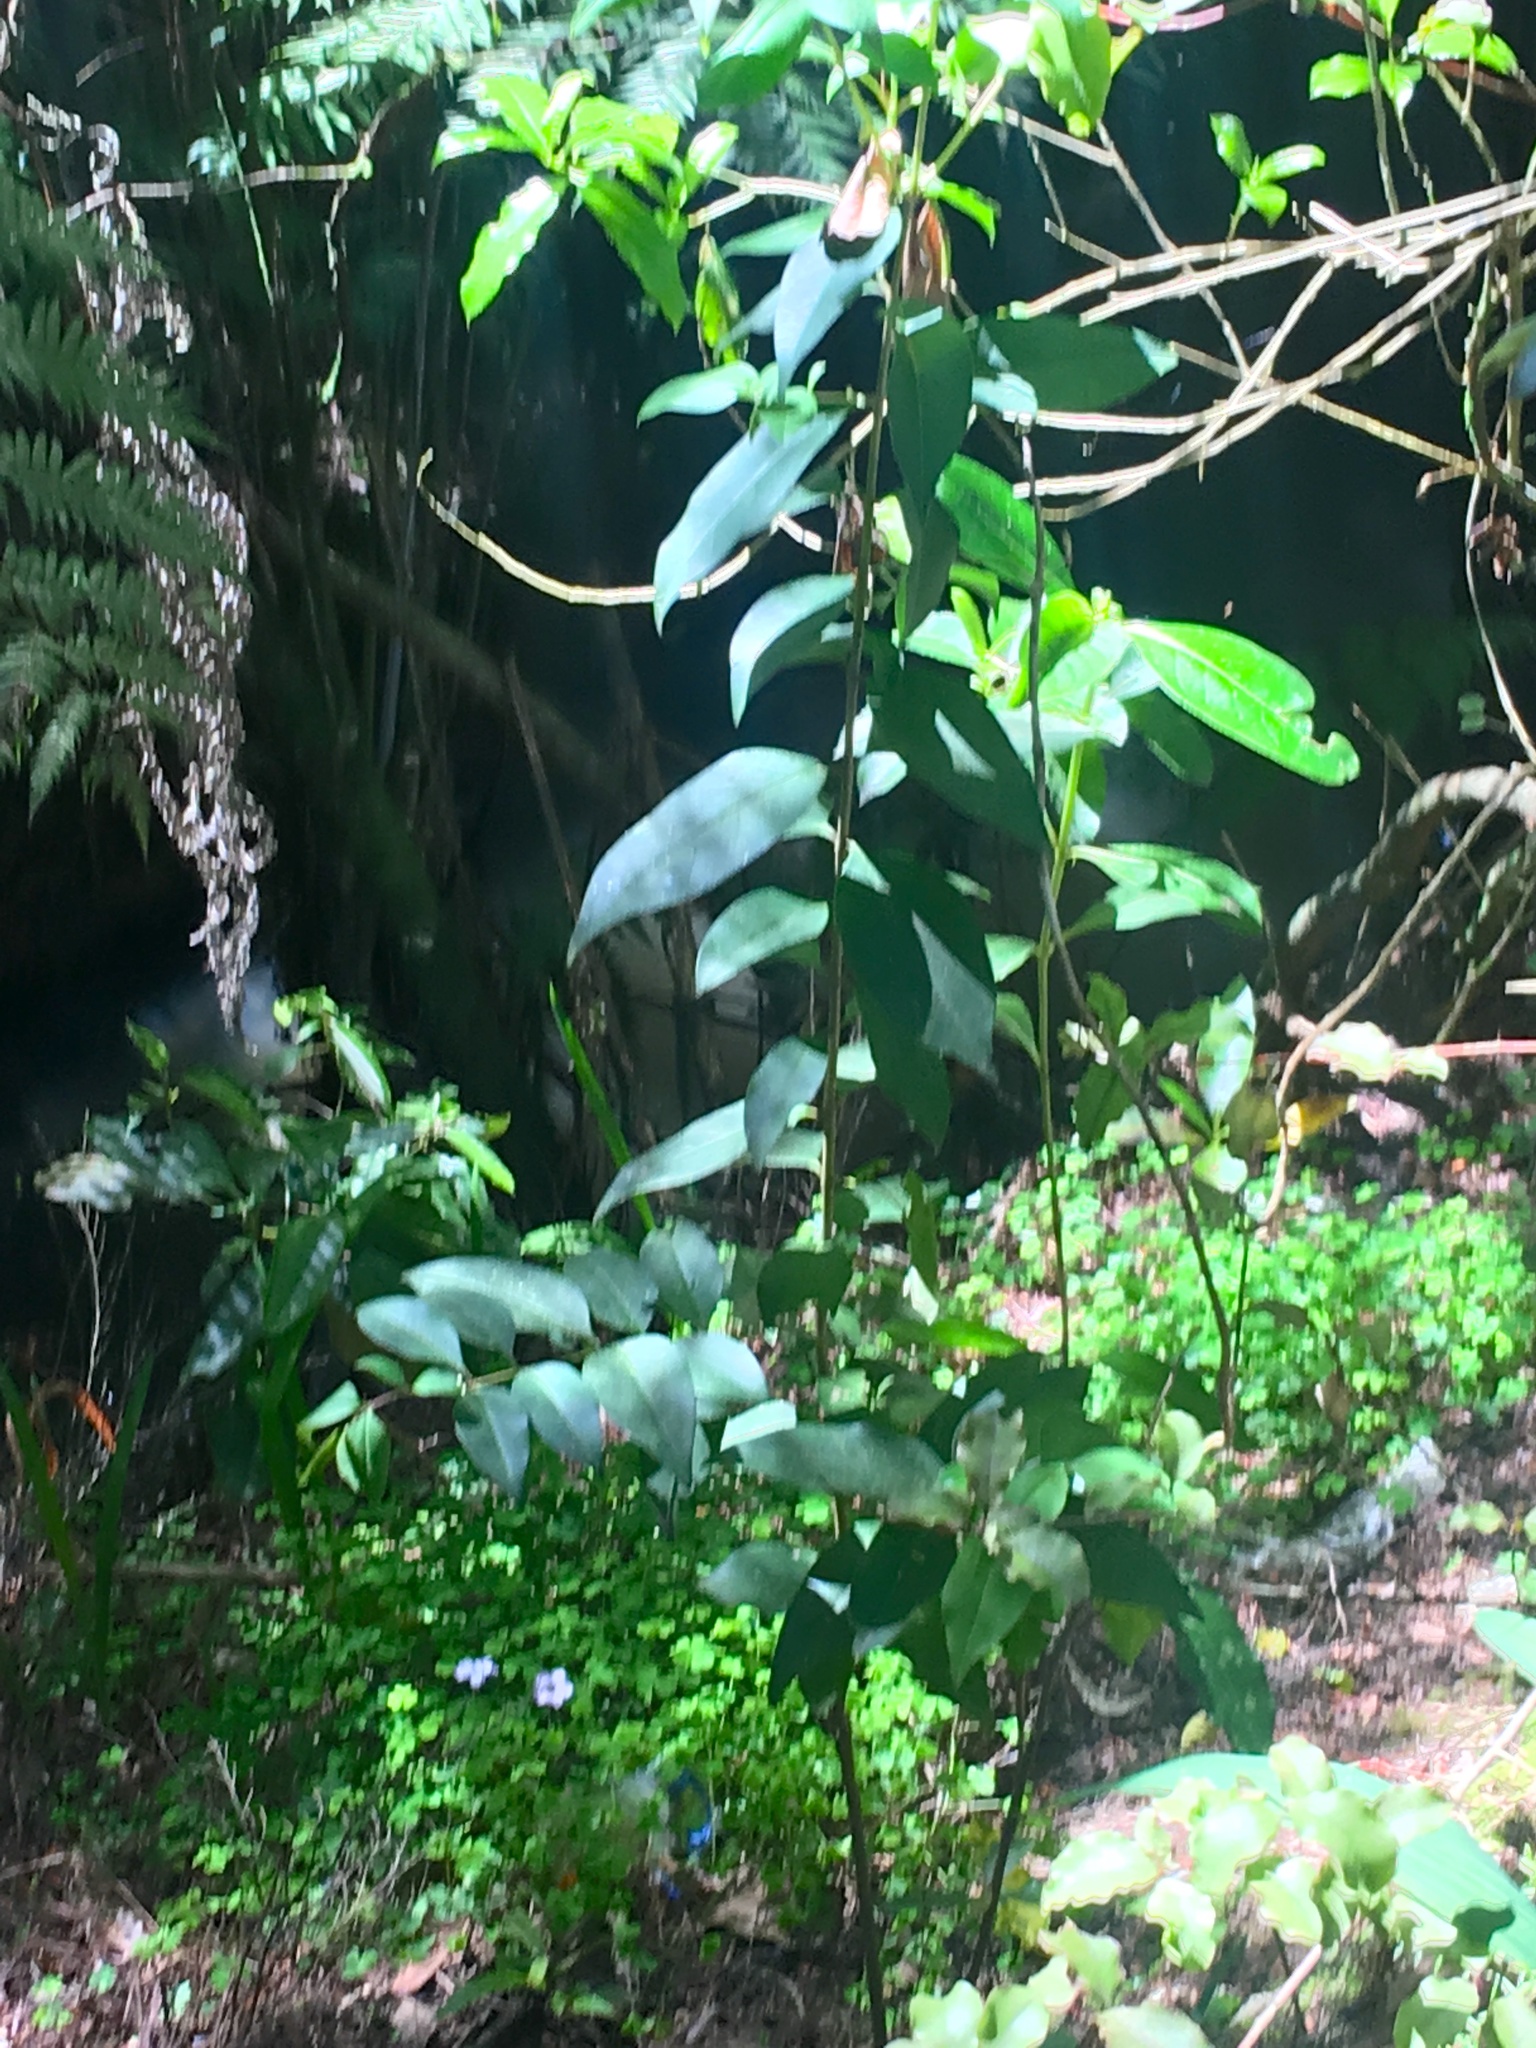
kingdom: Plantae
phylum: Tracheophyta
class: Magnoliopsida
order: Lamiales
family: Oleaceae
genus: Ligustrum
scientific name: Ligustrum lucidum
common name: Glossy privet
